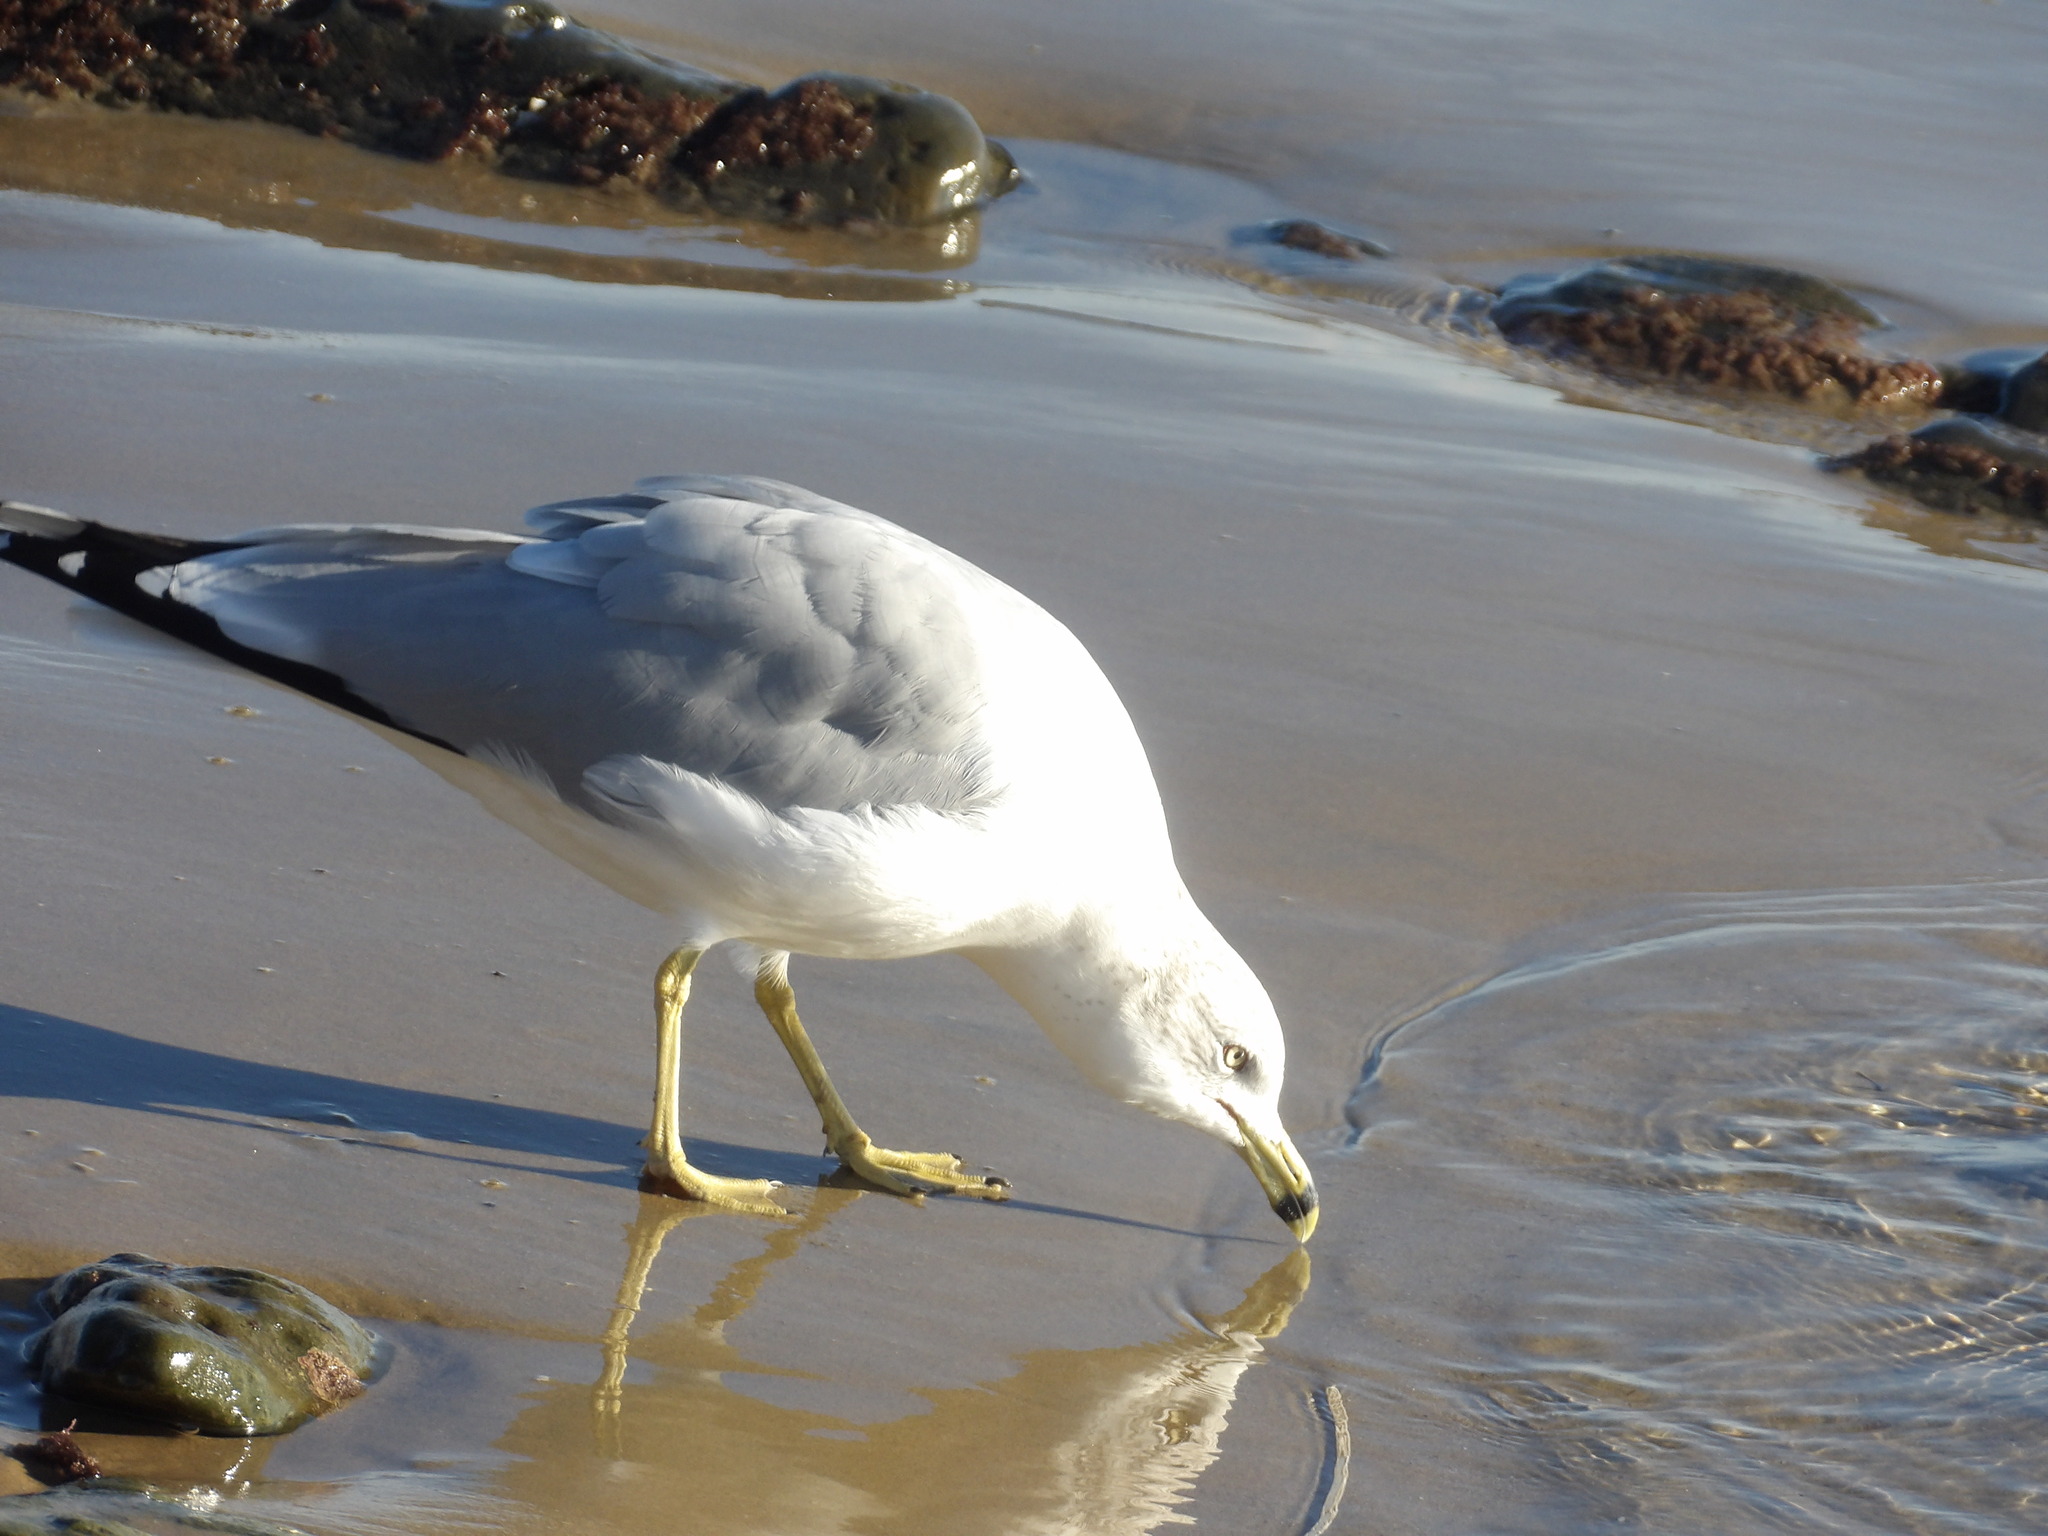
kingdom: Animalia
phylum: Chordata
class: Aves
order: Charadriiformes
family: Laridae
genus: Larus
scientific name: Larus delawarensis
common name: Ring-billed gull
